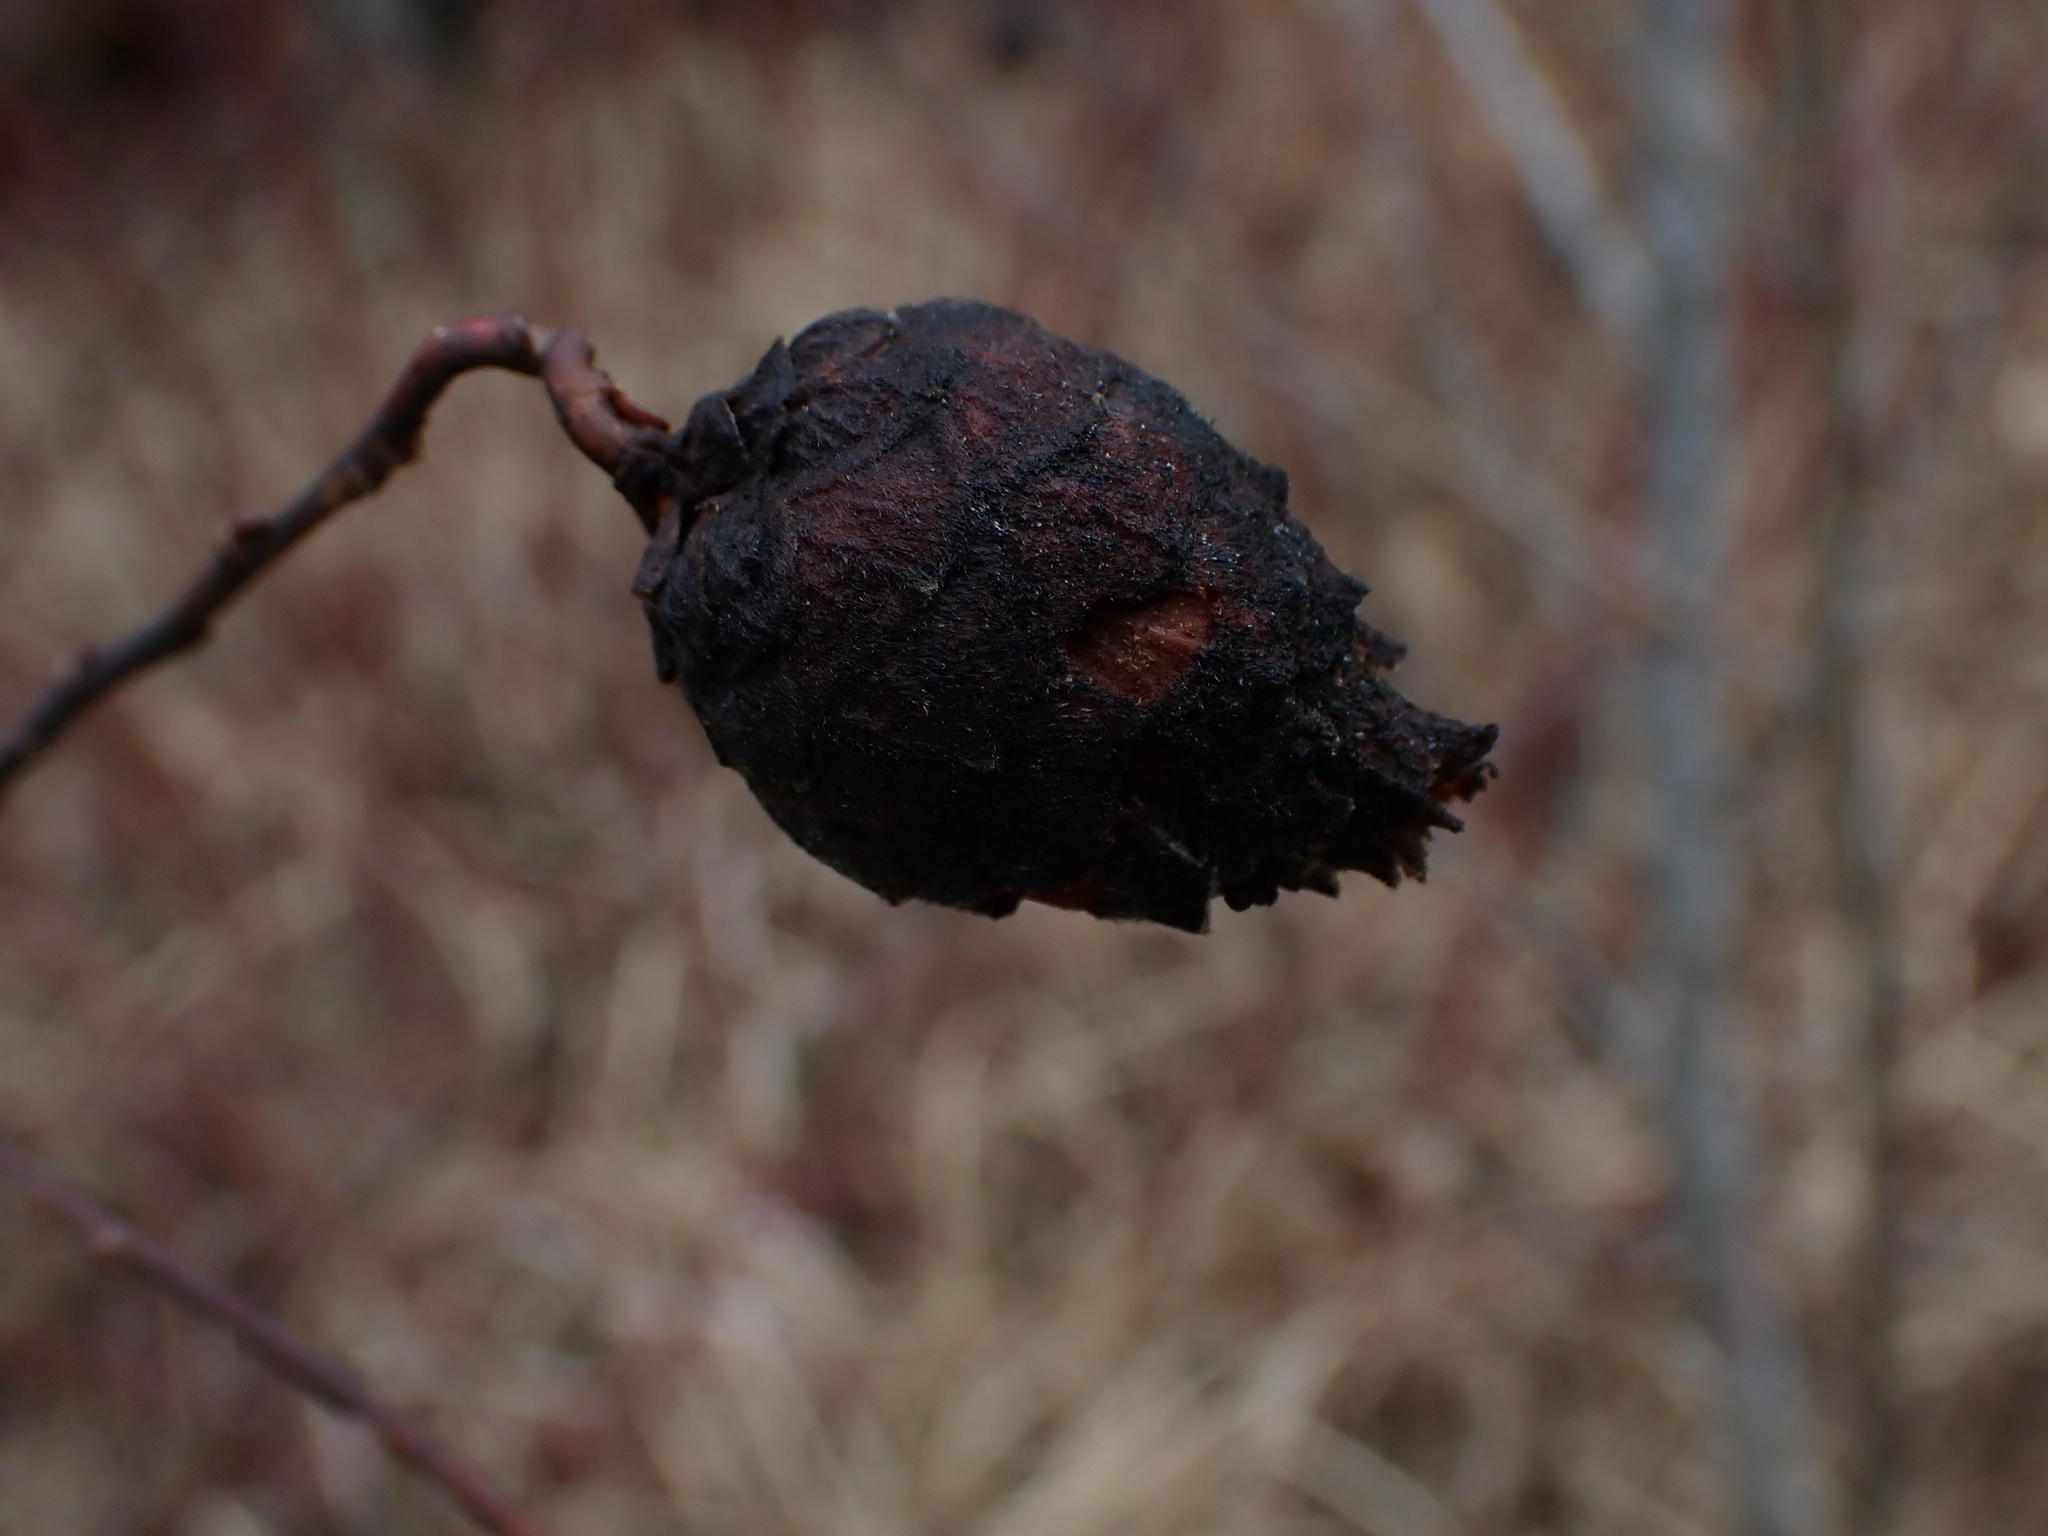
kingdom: Animalia
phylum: Arthropoda
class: Insecta
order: Diptera
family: Cecidomyiidae
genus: Rabdophaga
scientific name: Rabdophaga strobiloides
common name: Willow pinecone gall midge
